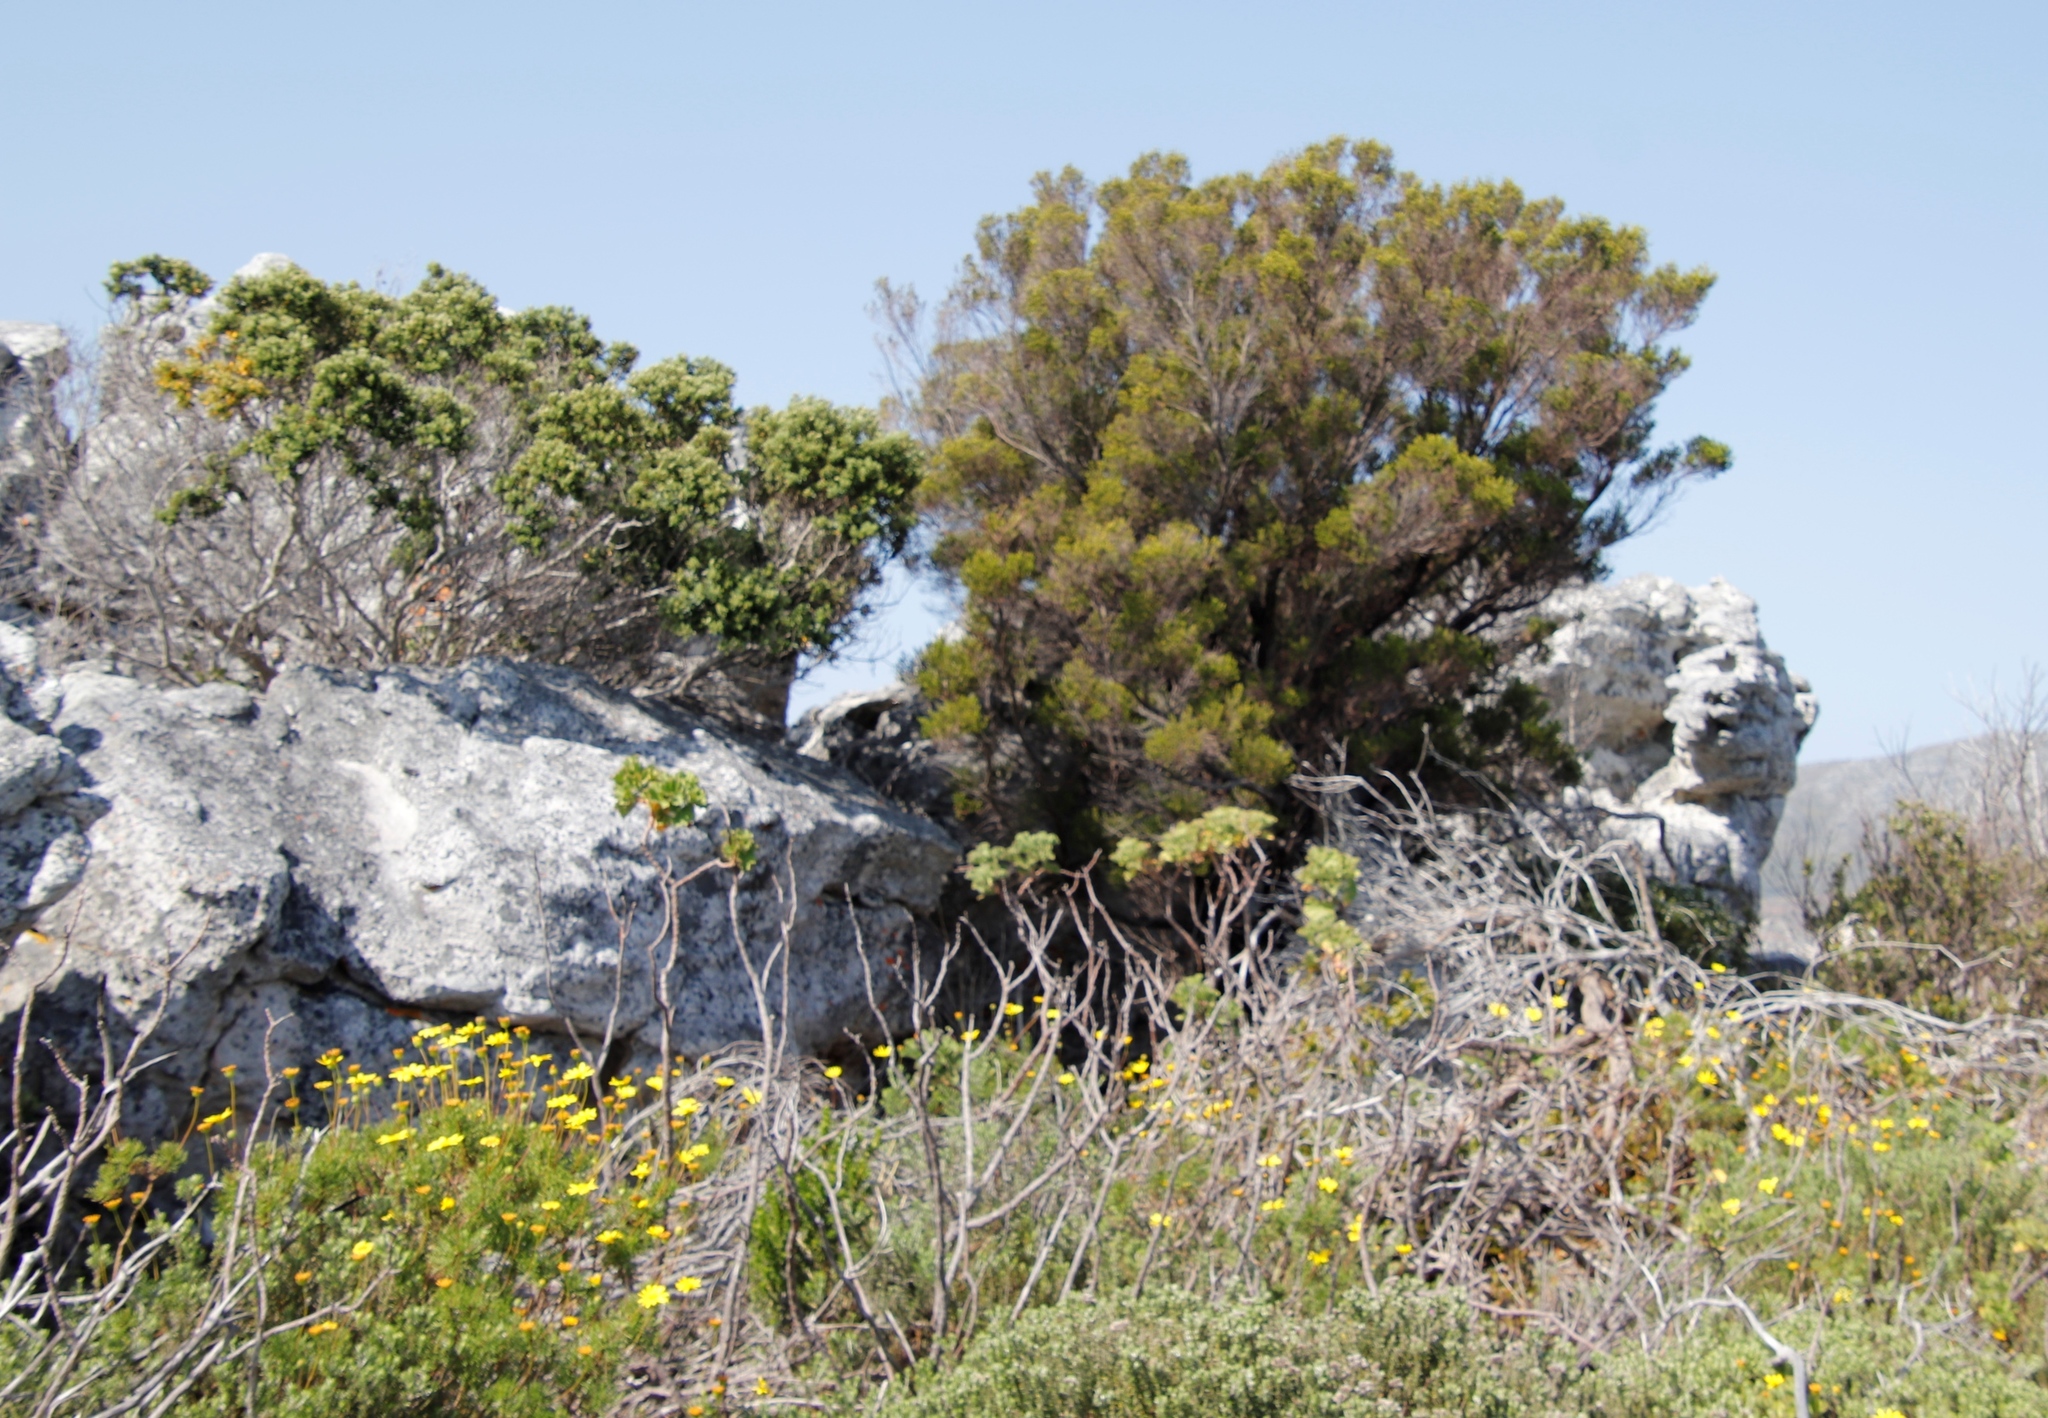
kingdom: Plantae
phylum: Tracheophyta
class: Magnoliopsida
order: Ericales
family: Ericaceae
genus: Erica
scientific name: Erica tristis
